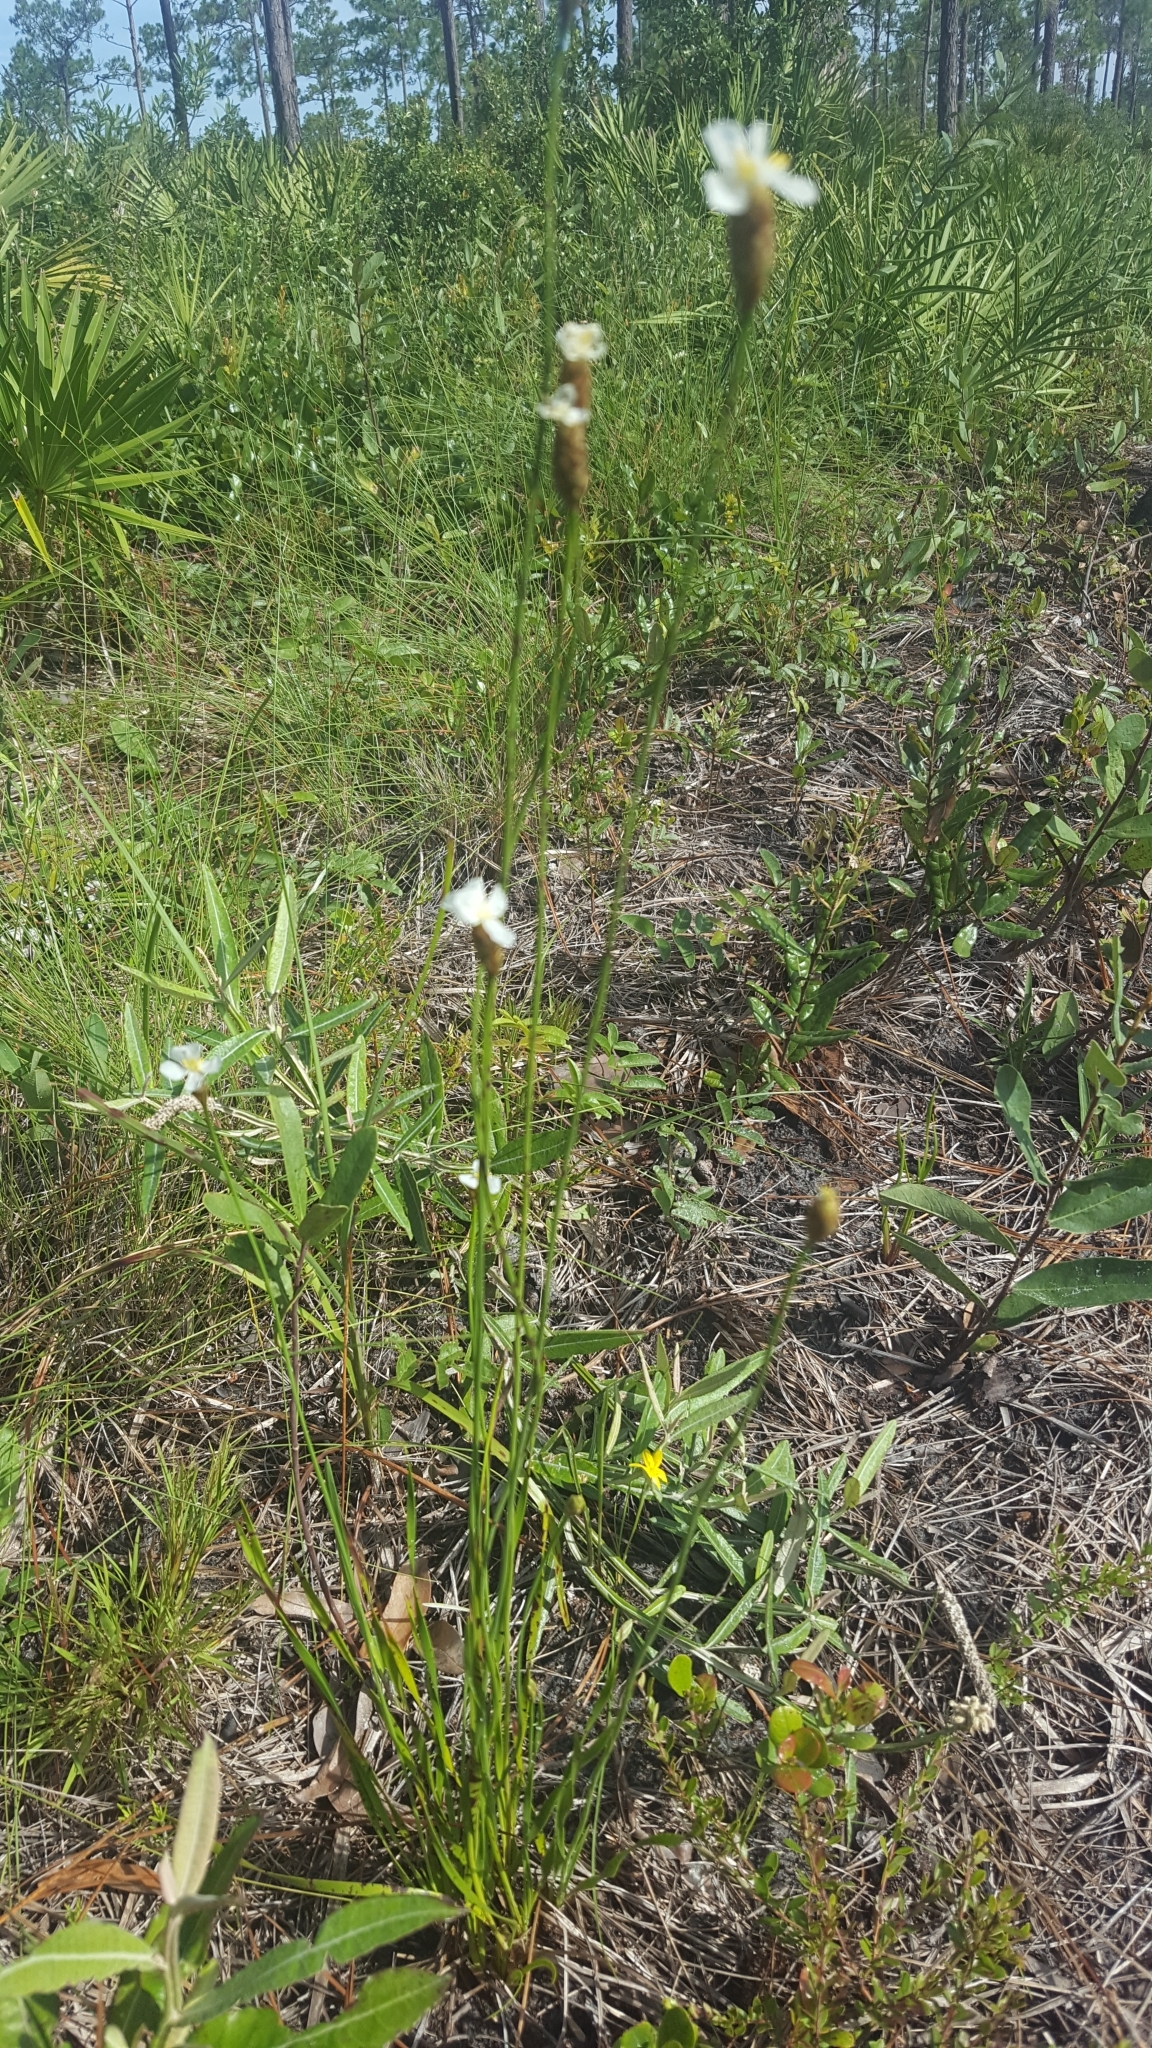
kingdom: Plantae
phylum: Tracheophyta
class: Liliopsida
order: Poales
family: Xyridaceae
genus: Xyris
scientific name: Xyris caroliniana
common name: Carolina yellow-eyed-grass
